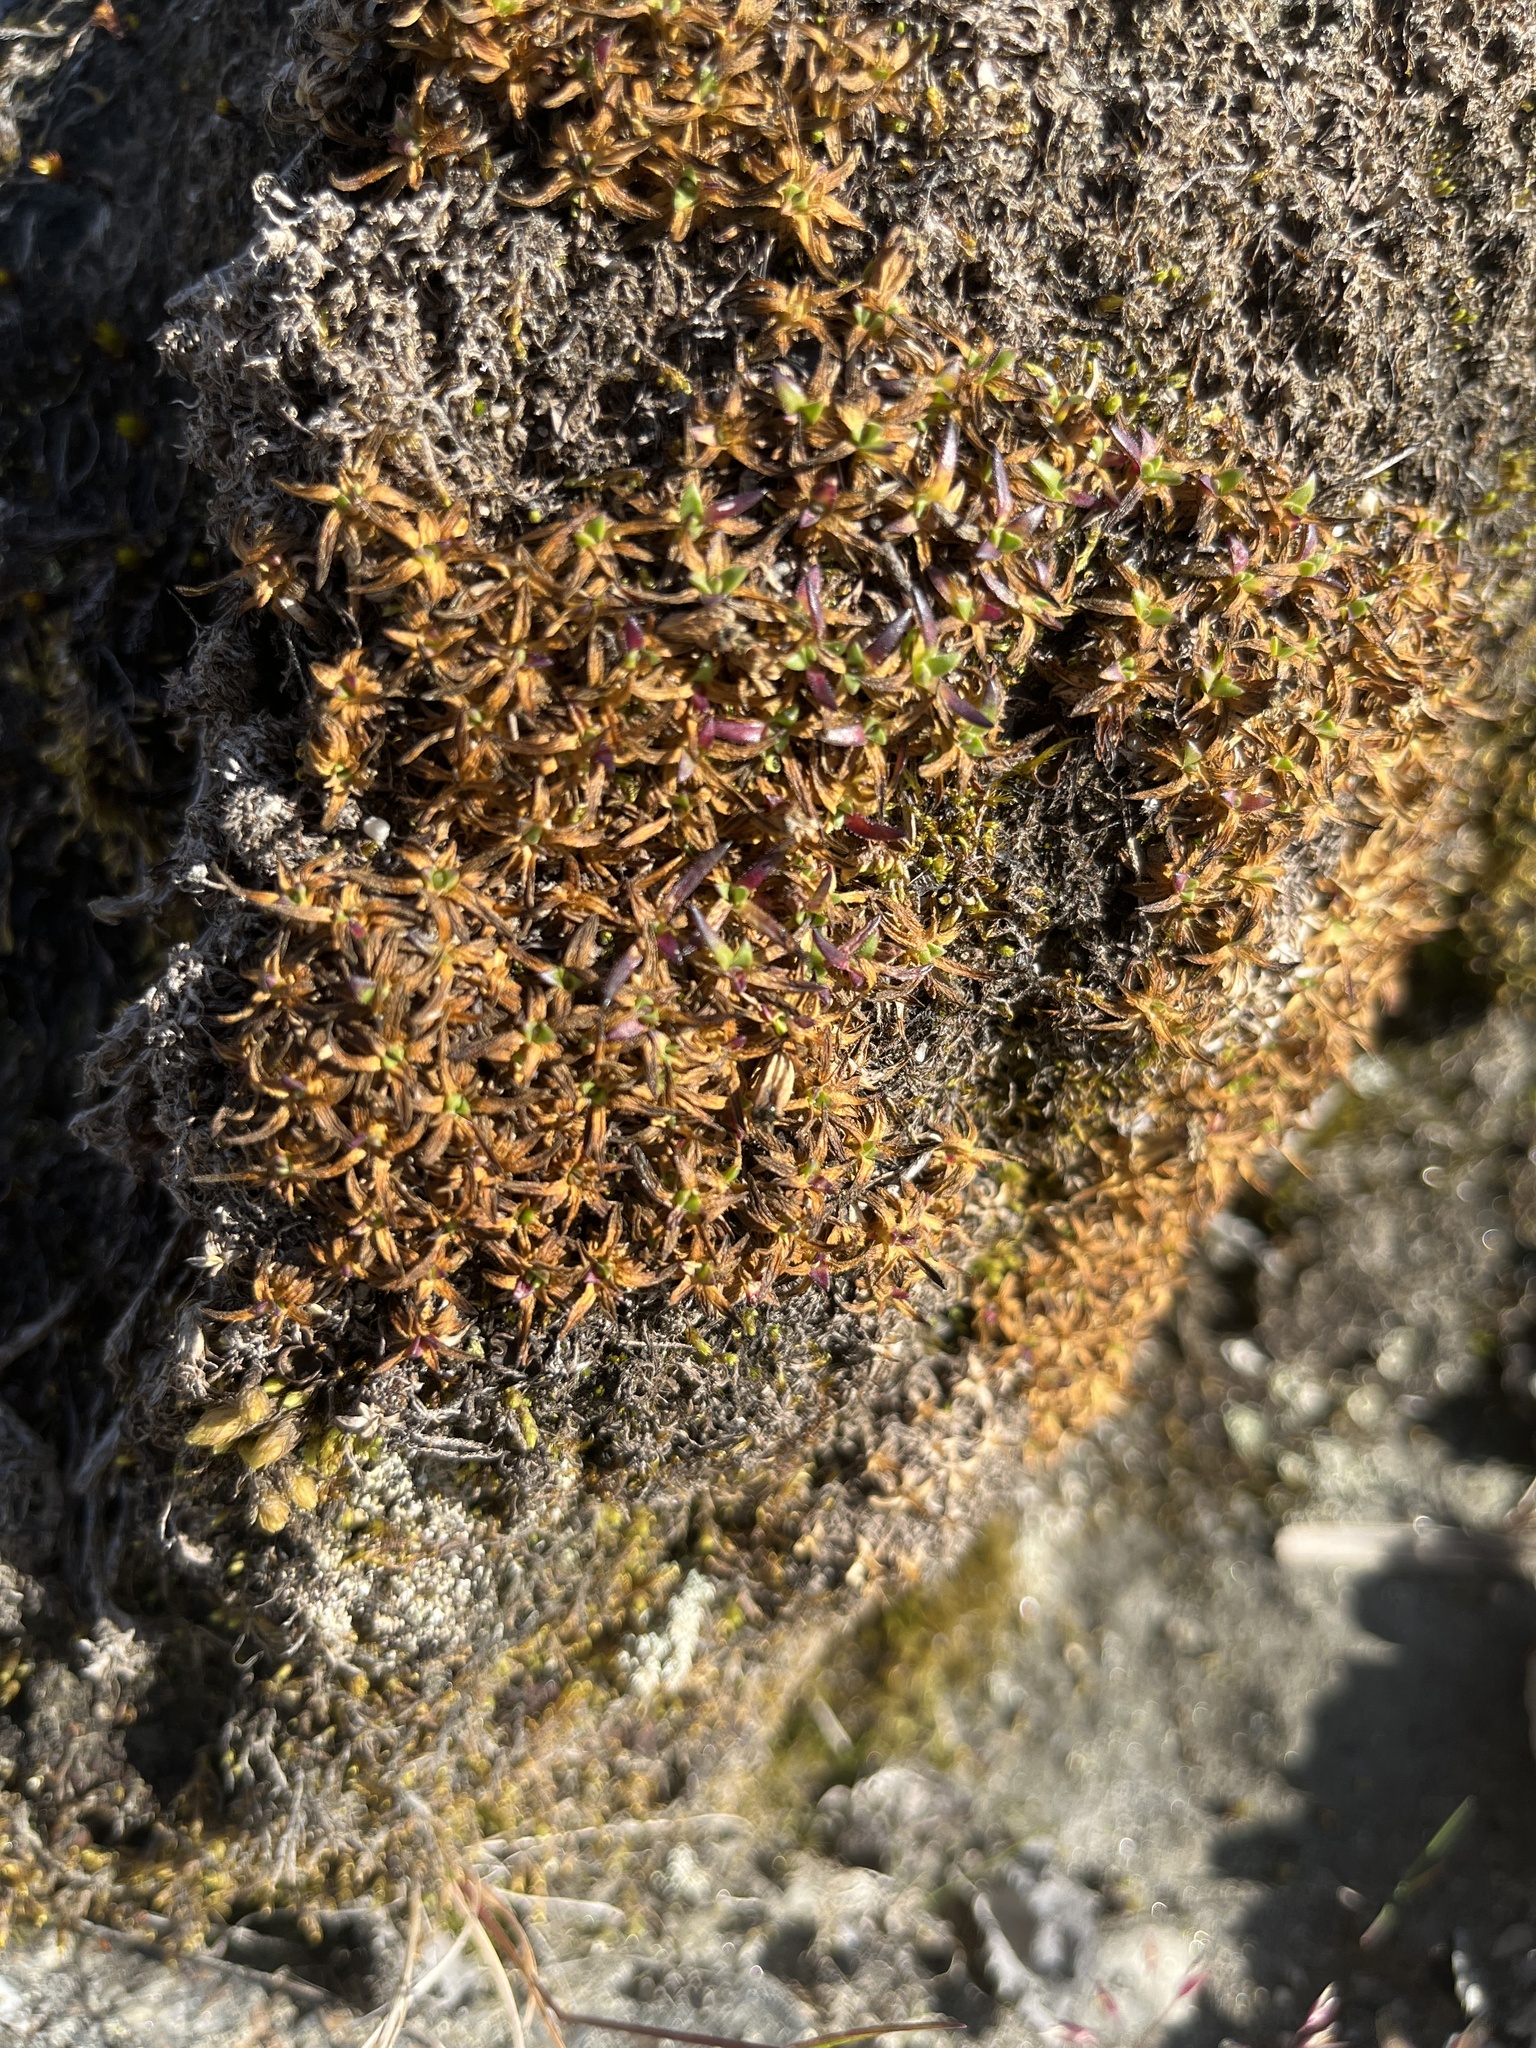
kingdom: Plantae
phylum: Tracheophyta
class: Magnoliopsida
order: Caryophyllales
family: Caryophyllaceae
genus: Silene
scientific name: Silene acaulis
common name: Moss campion
